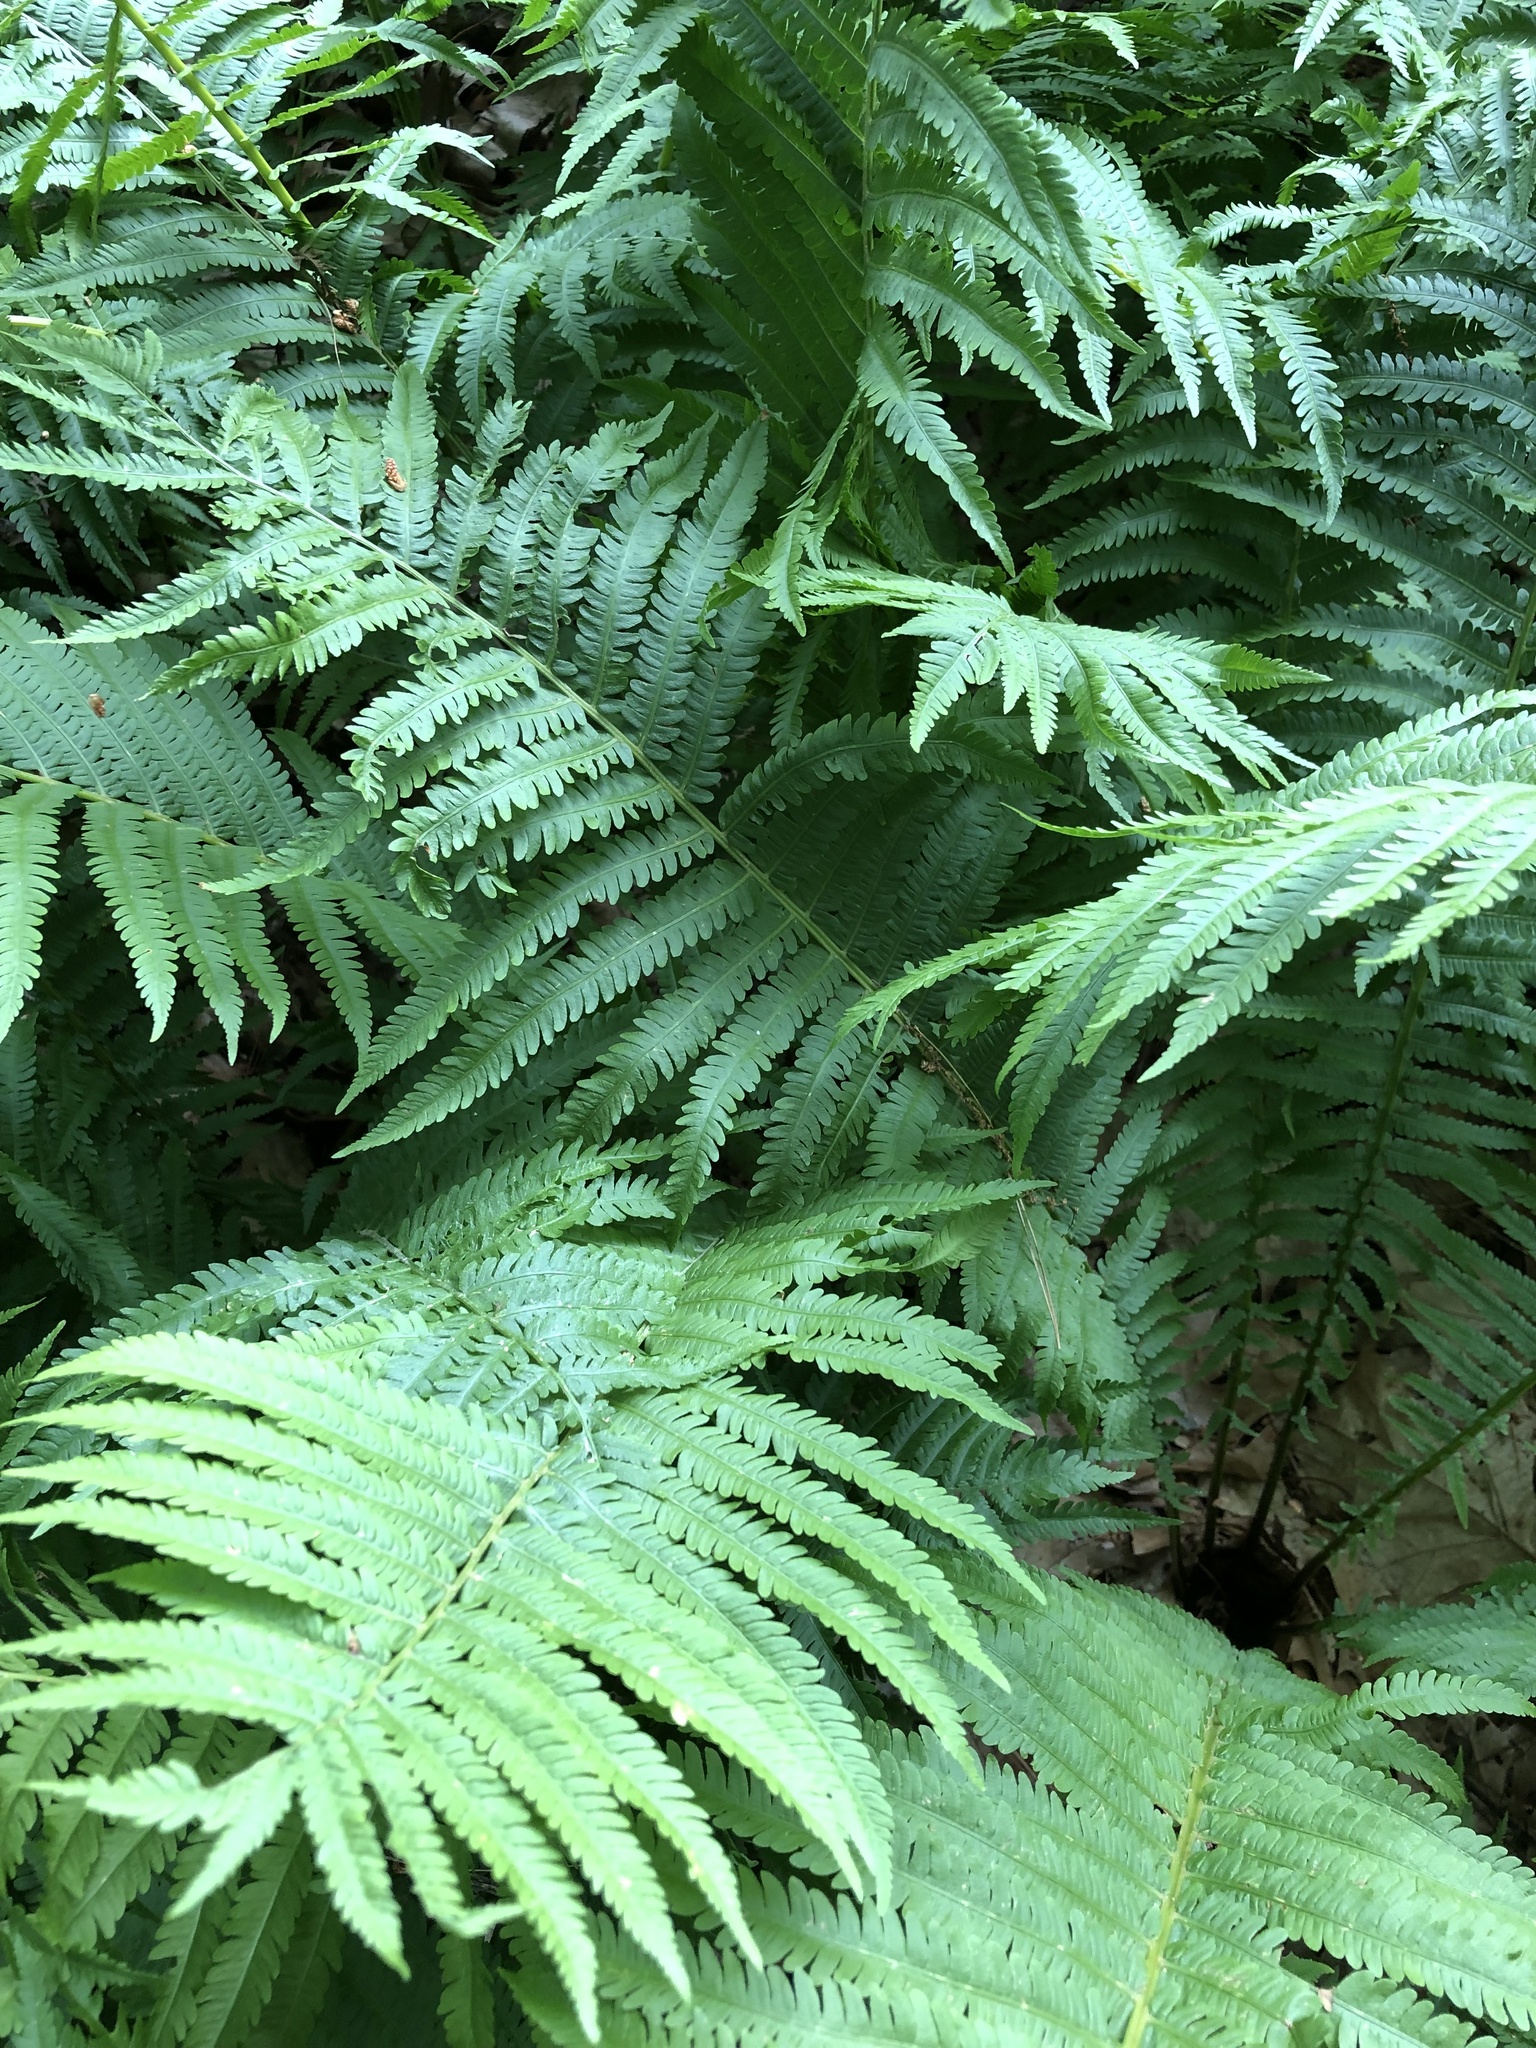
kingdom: Plantae
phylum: Tracheophyta
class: Polypodiopsida
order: Polypodiales
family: Onocleaceae
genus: Matteuccia
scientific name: Matteuccia struthiopteris
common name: Ostrich fern
